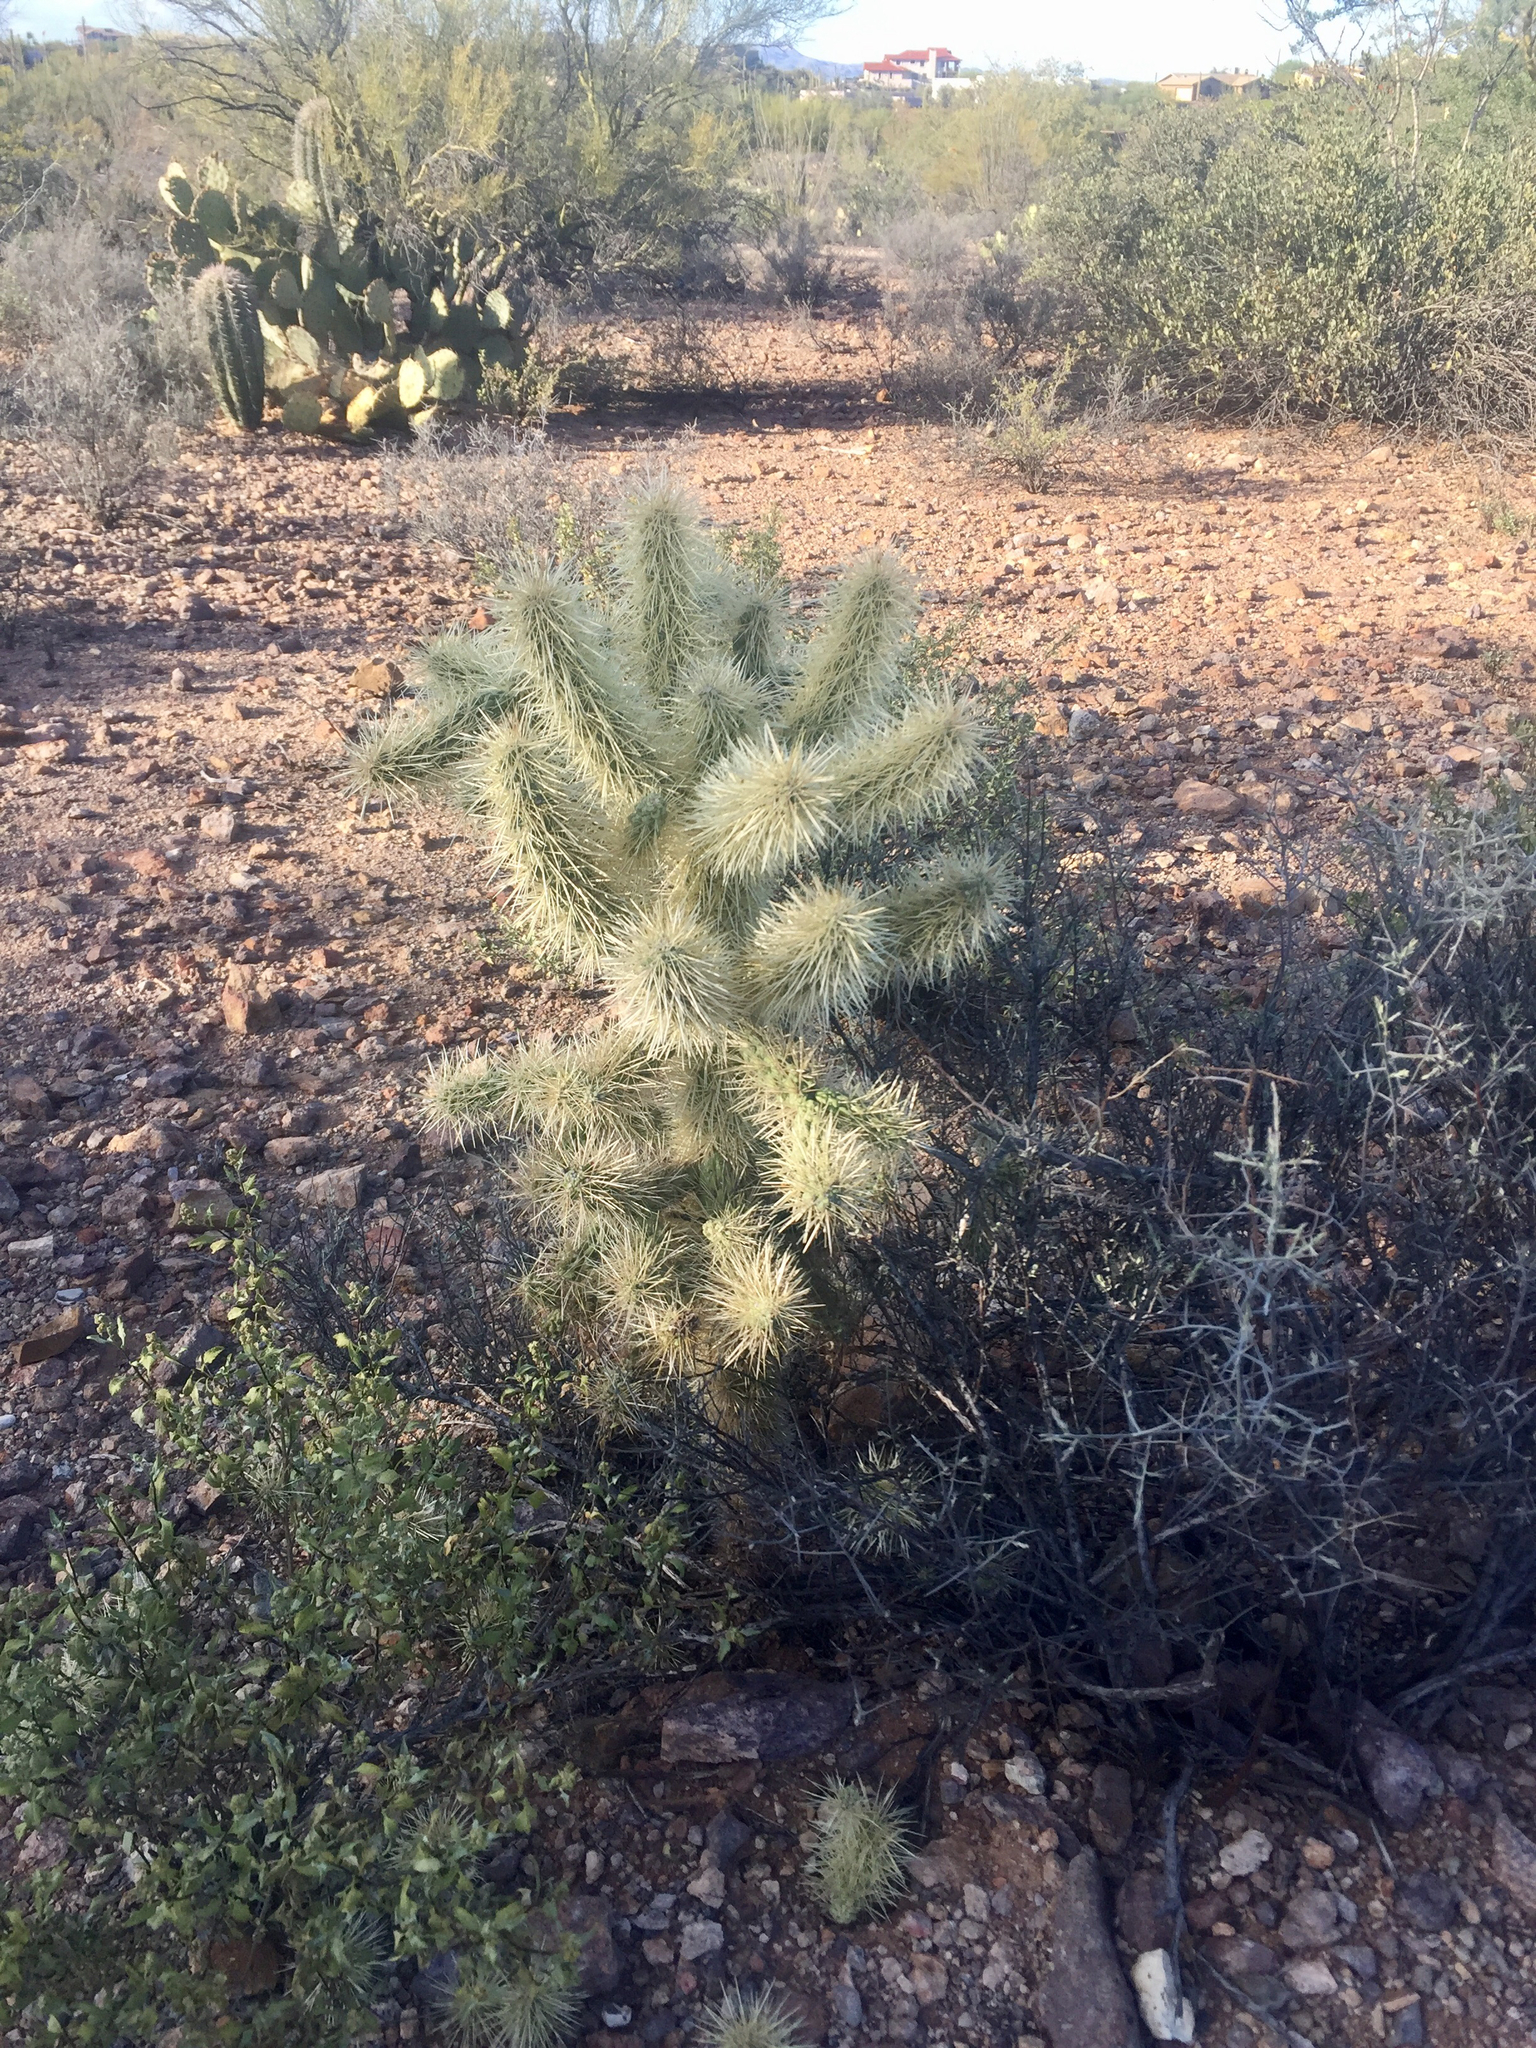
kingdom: Plantae
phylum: Tracheophyta
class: Magnoliopsida
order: Caryophyllales
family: Cactaceae
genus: Cylindropuntia
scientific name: Cylindropuntia fosbergii
